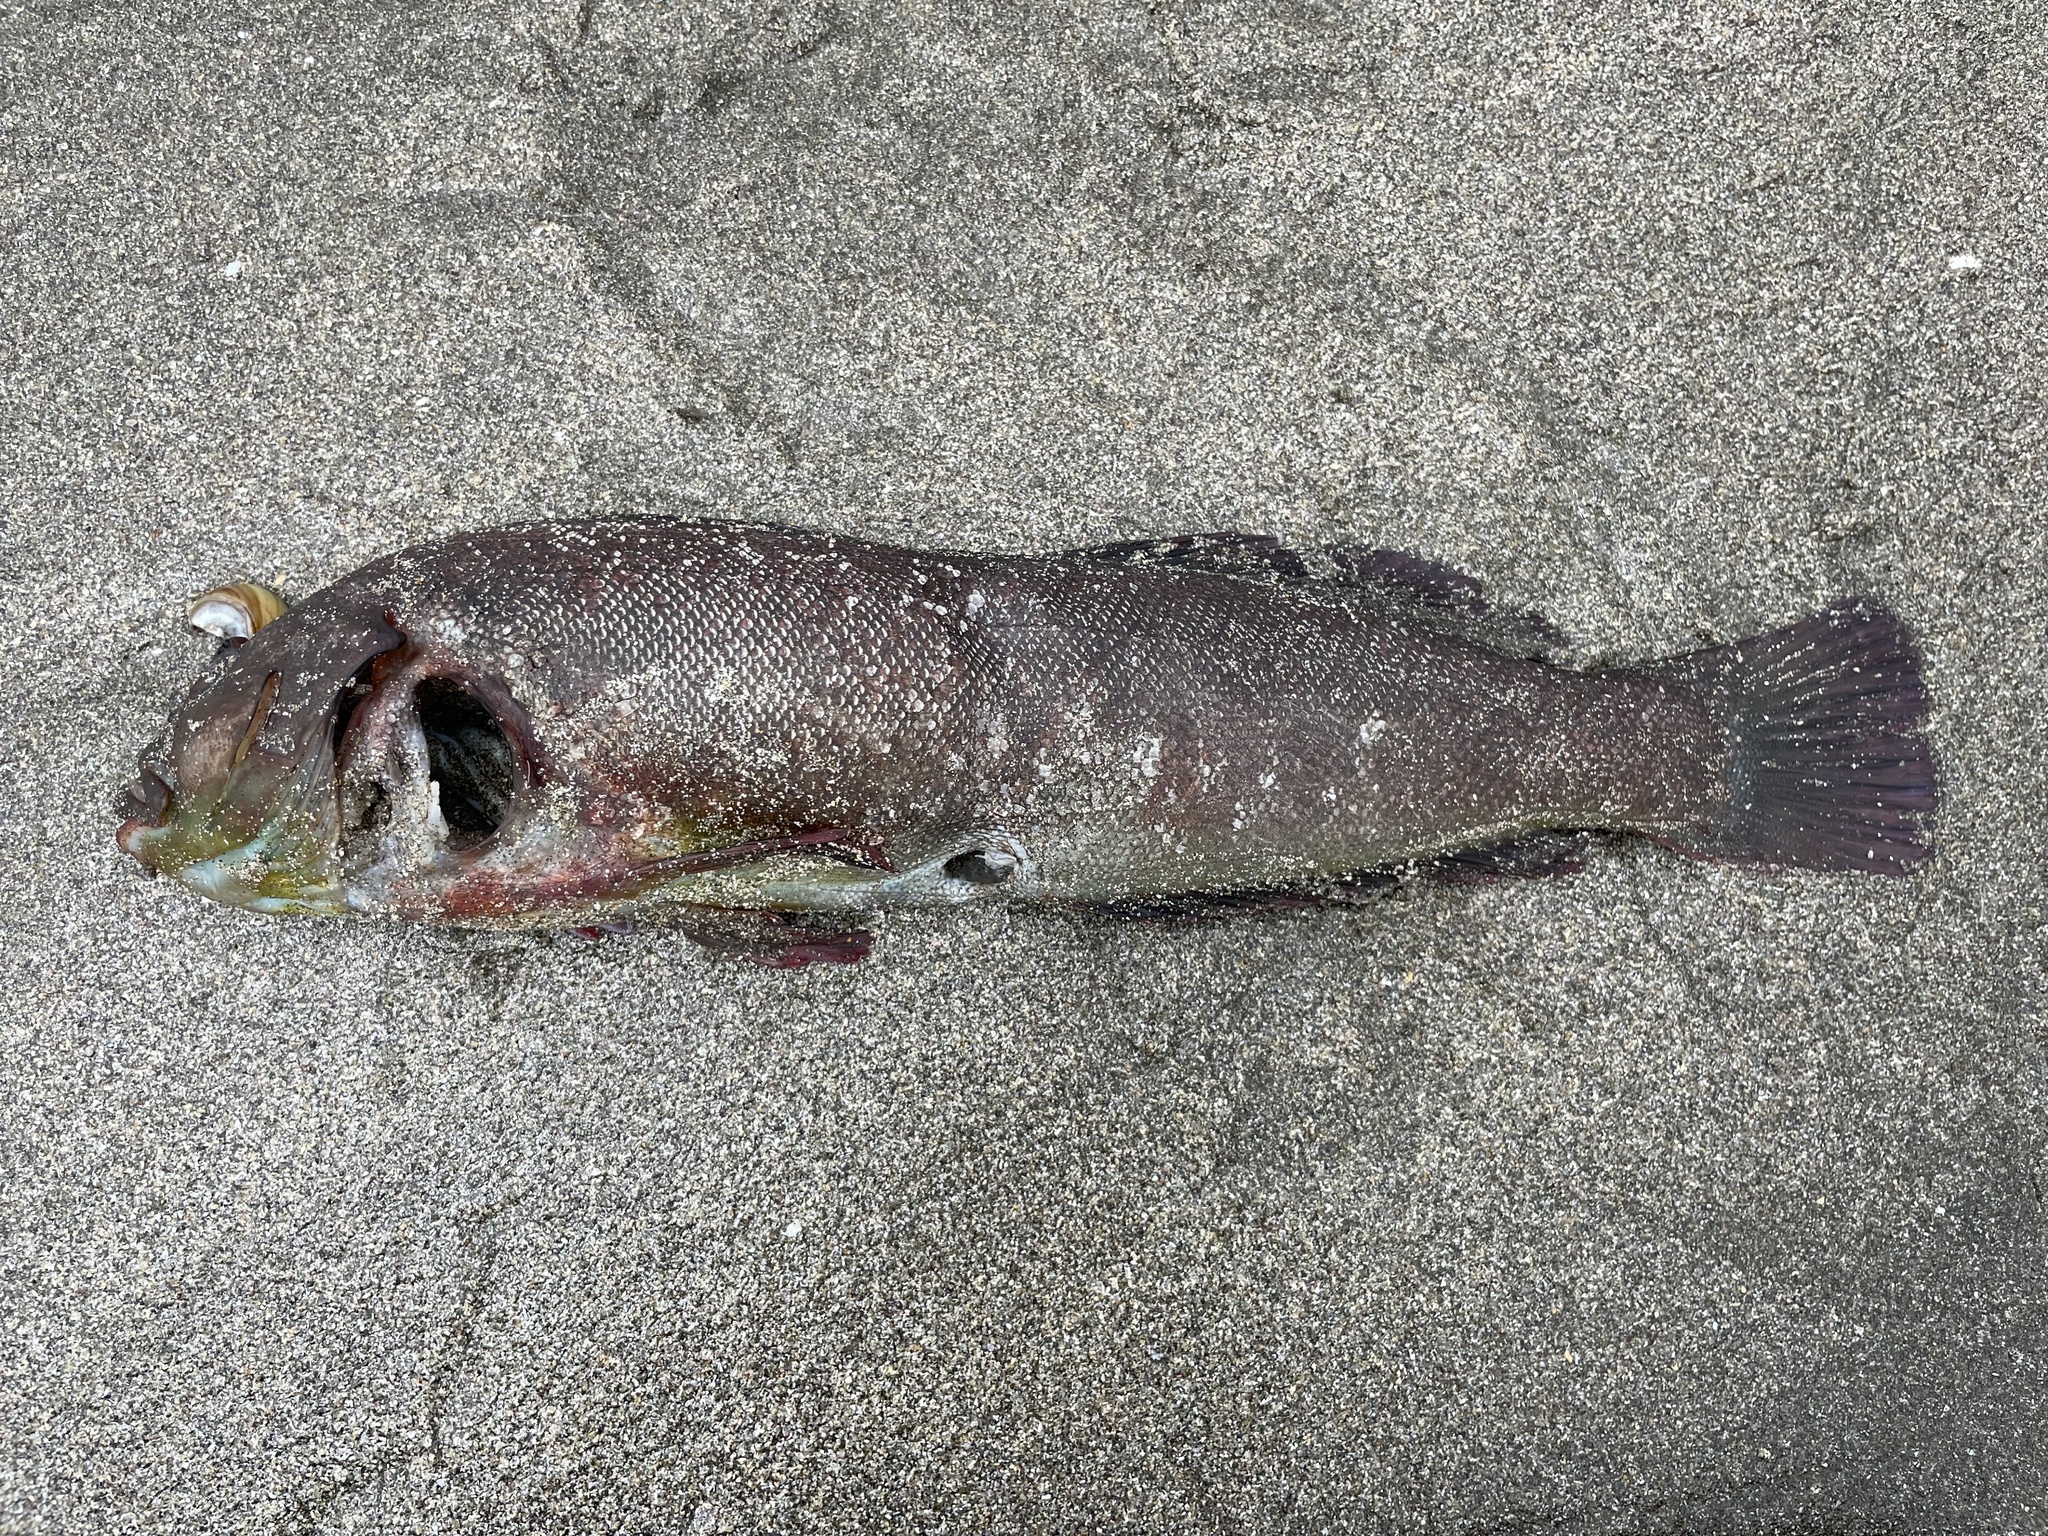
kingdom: Animalia
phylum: Chordata
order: Scorpaeniformes
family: Hexagrammidae
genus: Hexagrammos
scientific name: Hexagrammos lagocephalus
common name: Rock greenling
